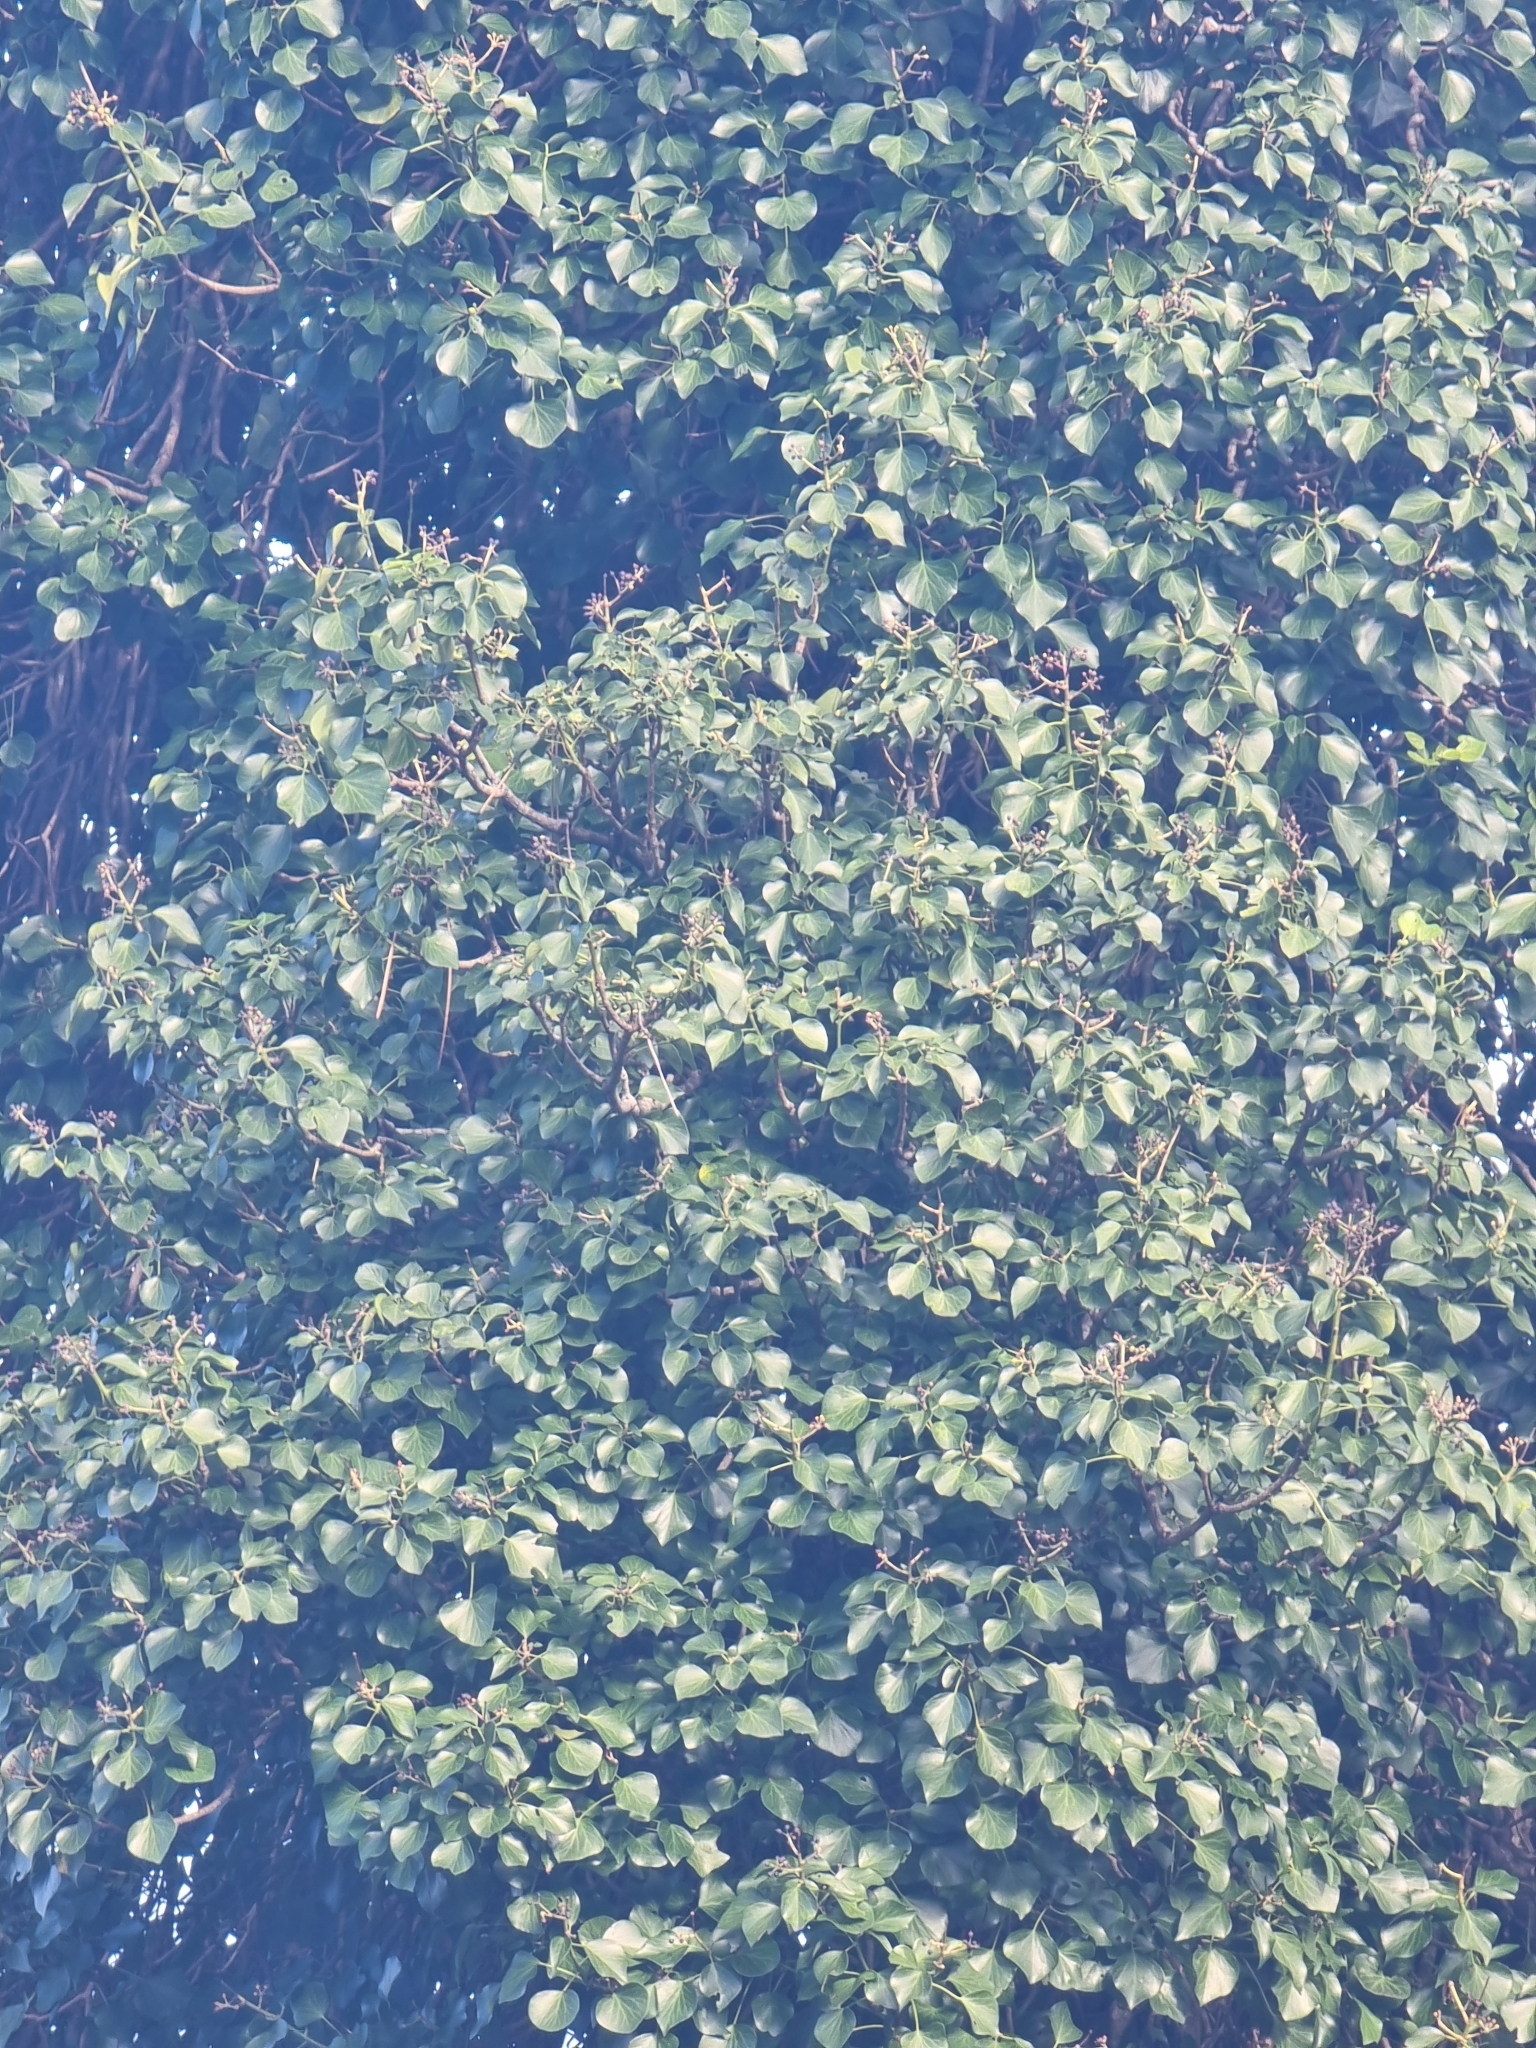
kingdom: Plantae
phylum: Tracheophyta
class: Magnoliopsida
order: Apiales
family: Araliaceae
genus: Hedera
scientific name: Hedera maderensis
